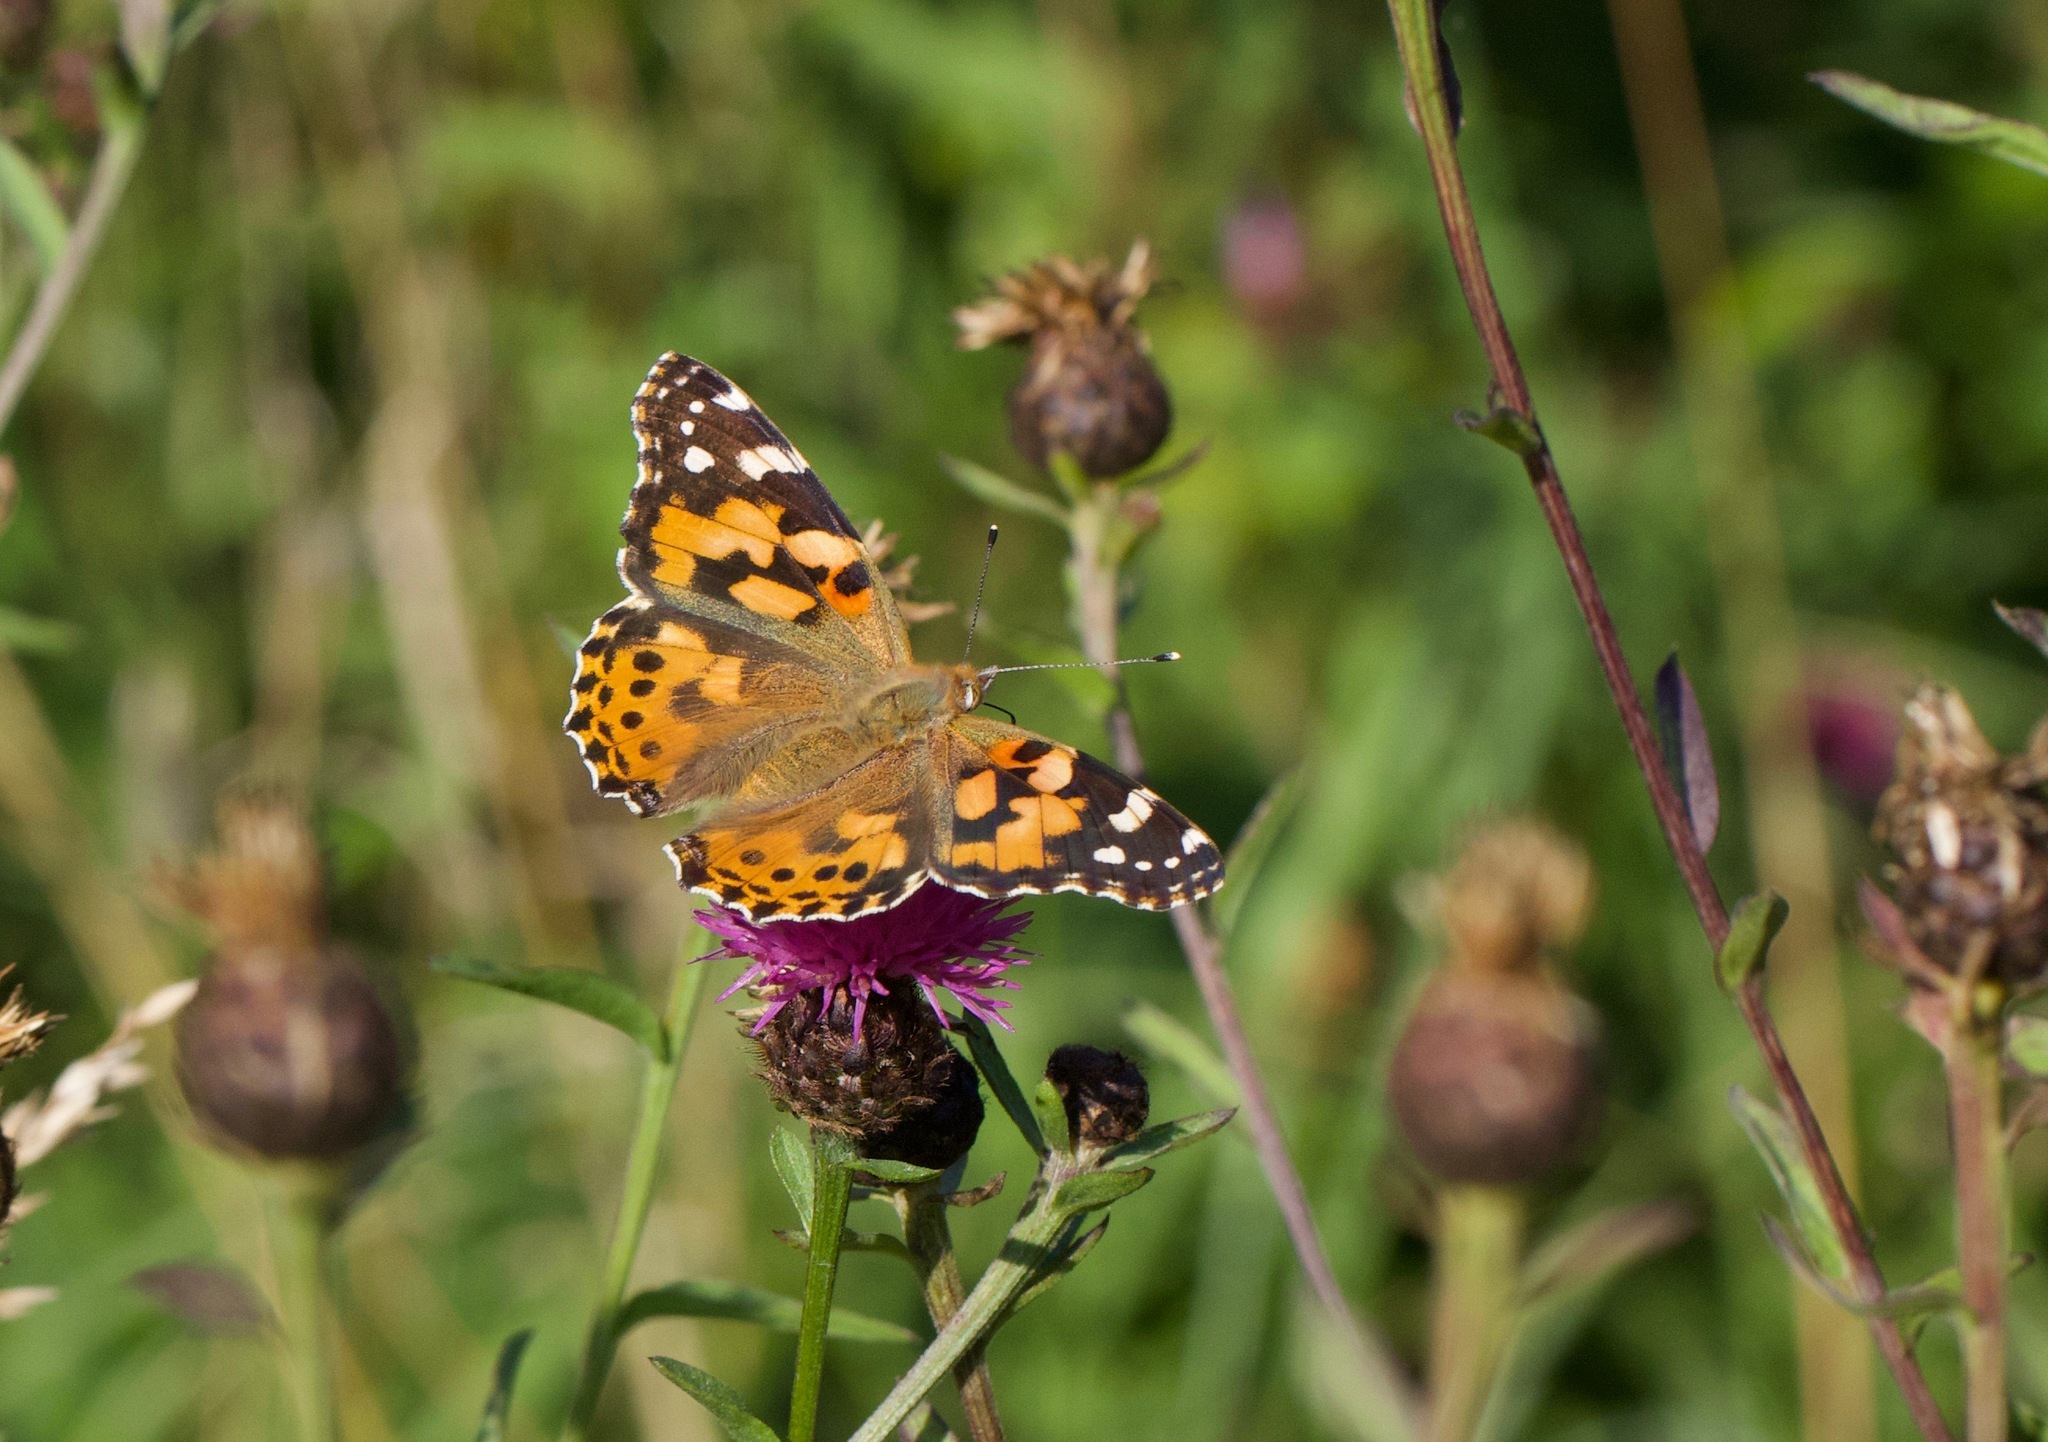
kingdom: Animalia
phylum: Arthropoda
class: Insecta
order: Lepidoptera
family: Nymphalidae
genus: Vanessa
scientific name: Vanessa cardui
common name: Painted lady
